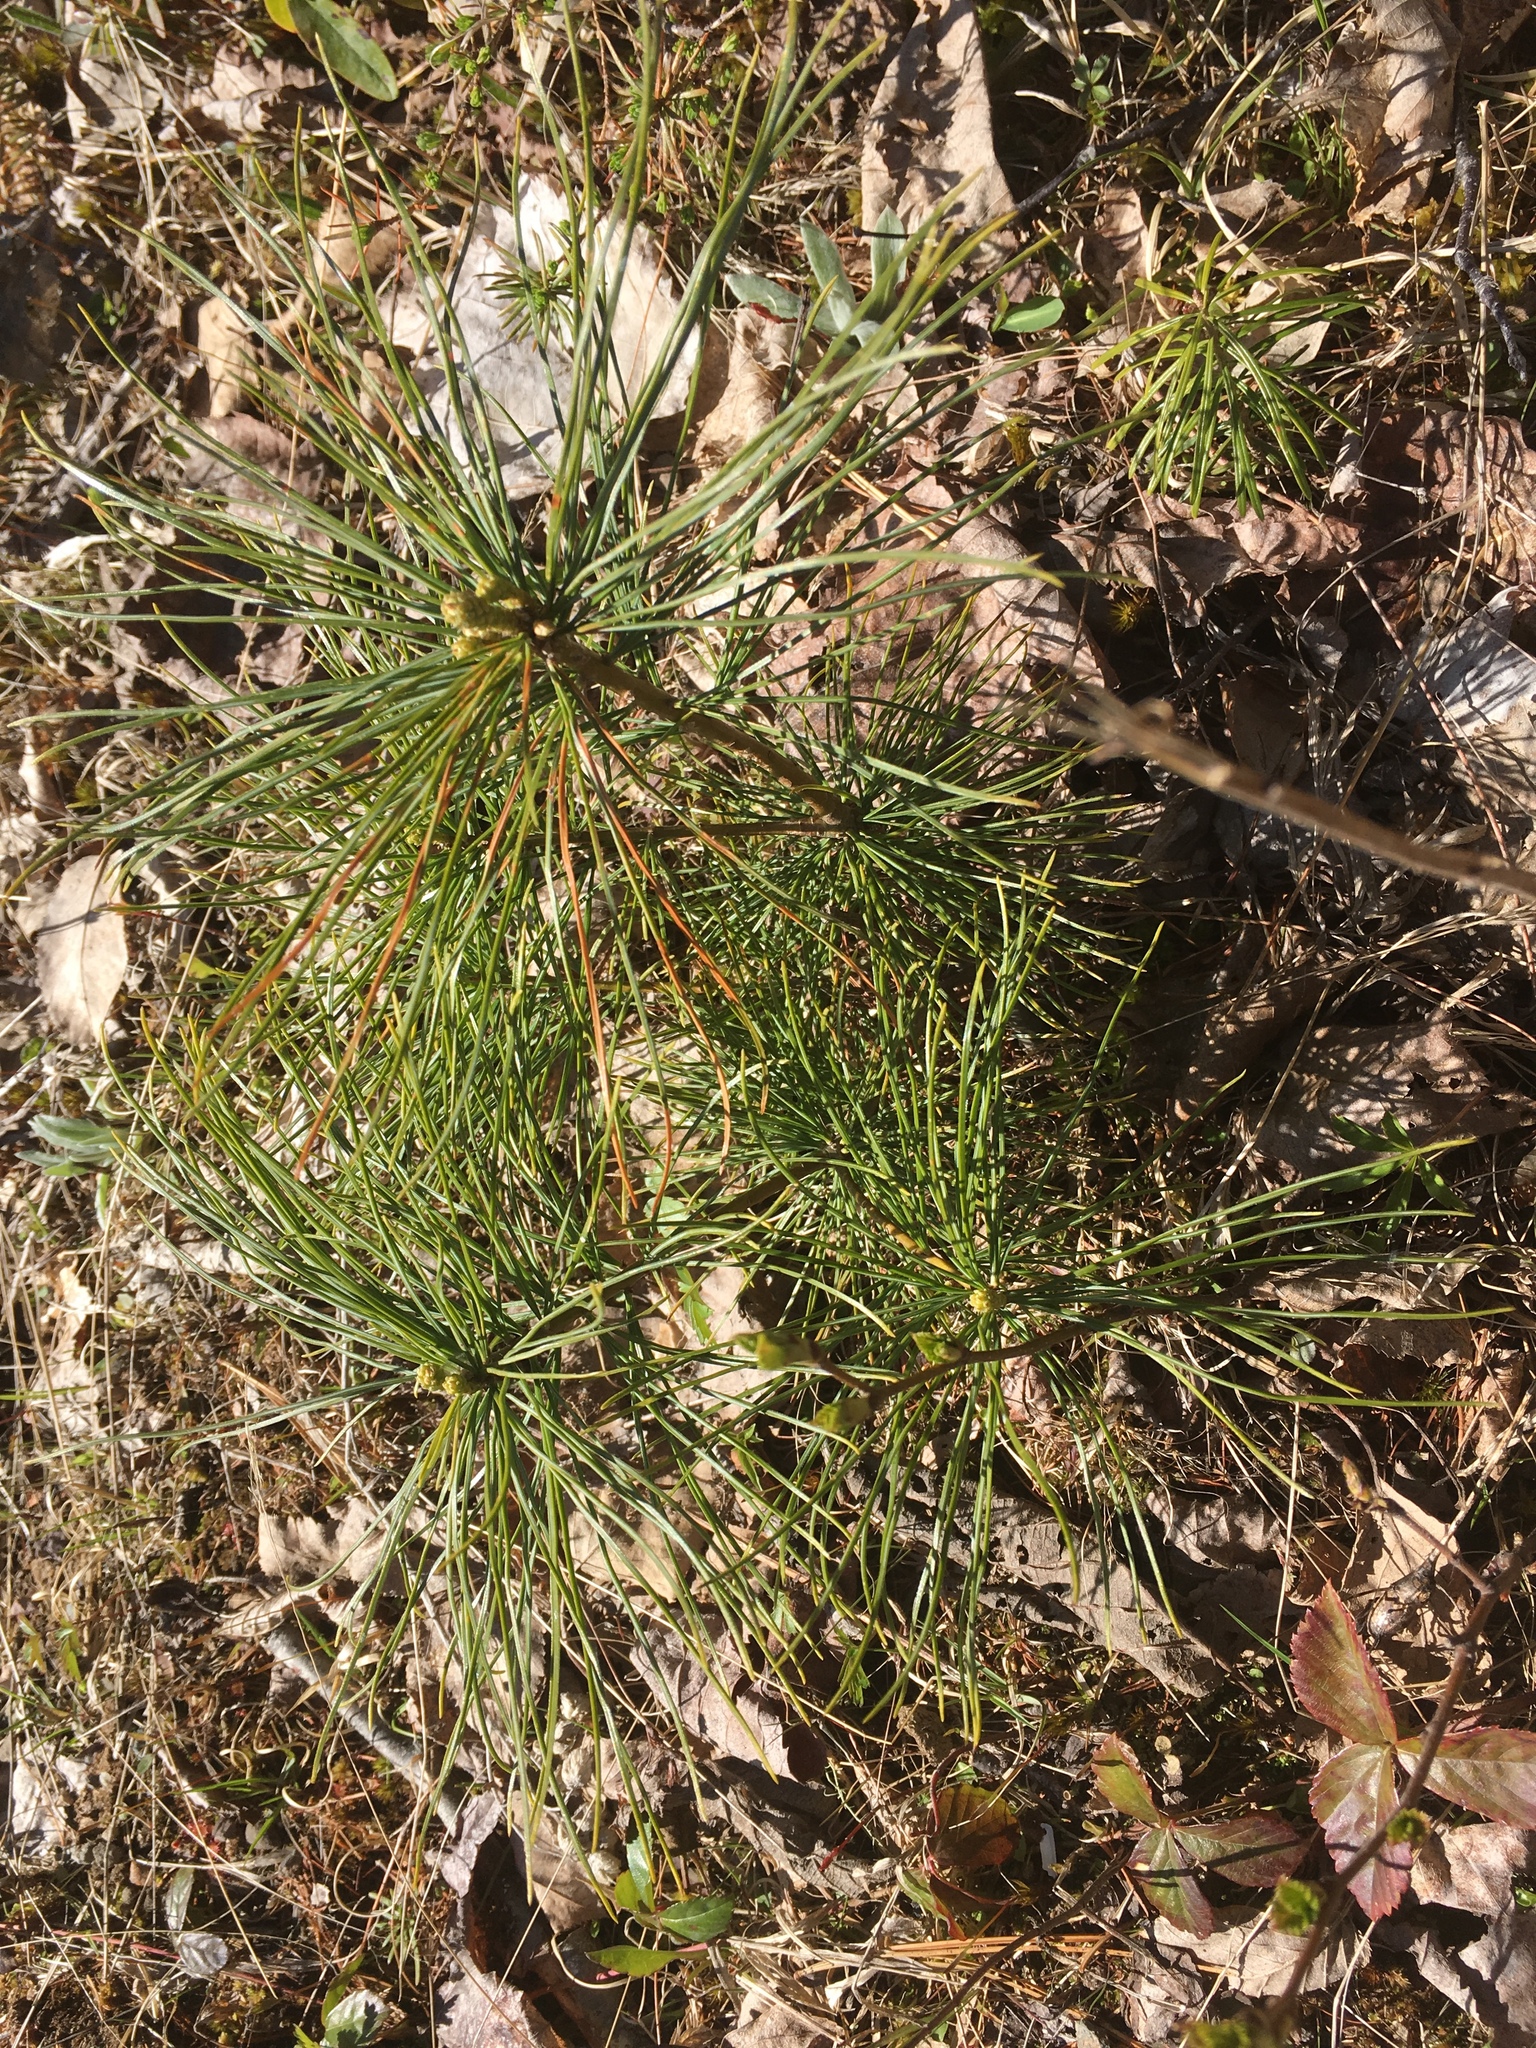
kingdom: Plantae
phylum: Tracheophyta
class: Pinopsida
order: Pinales
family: Pinaceae
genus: Pinus
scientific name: Pinus strobus
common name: Weymouth pine
